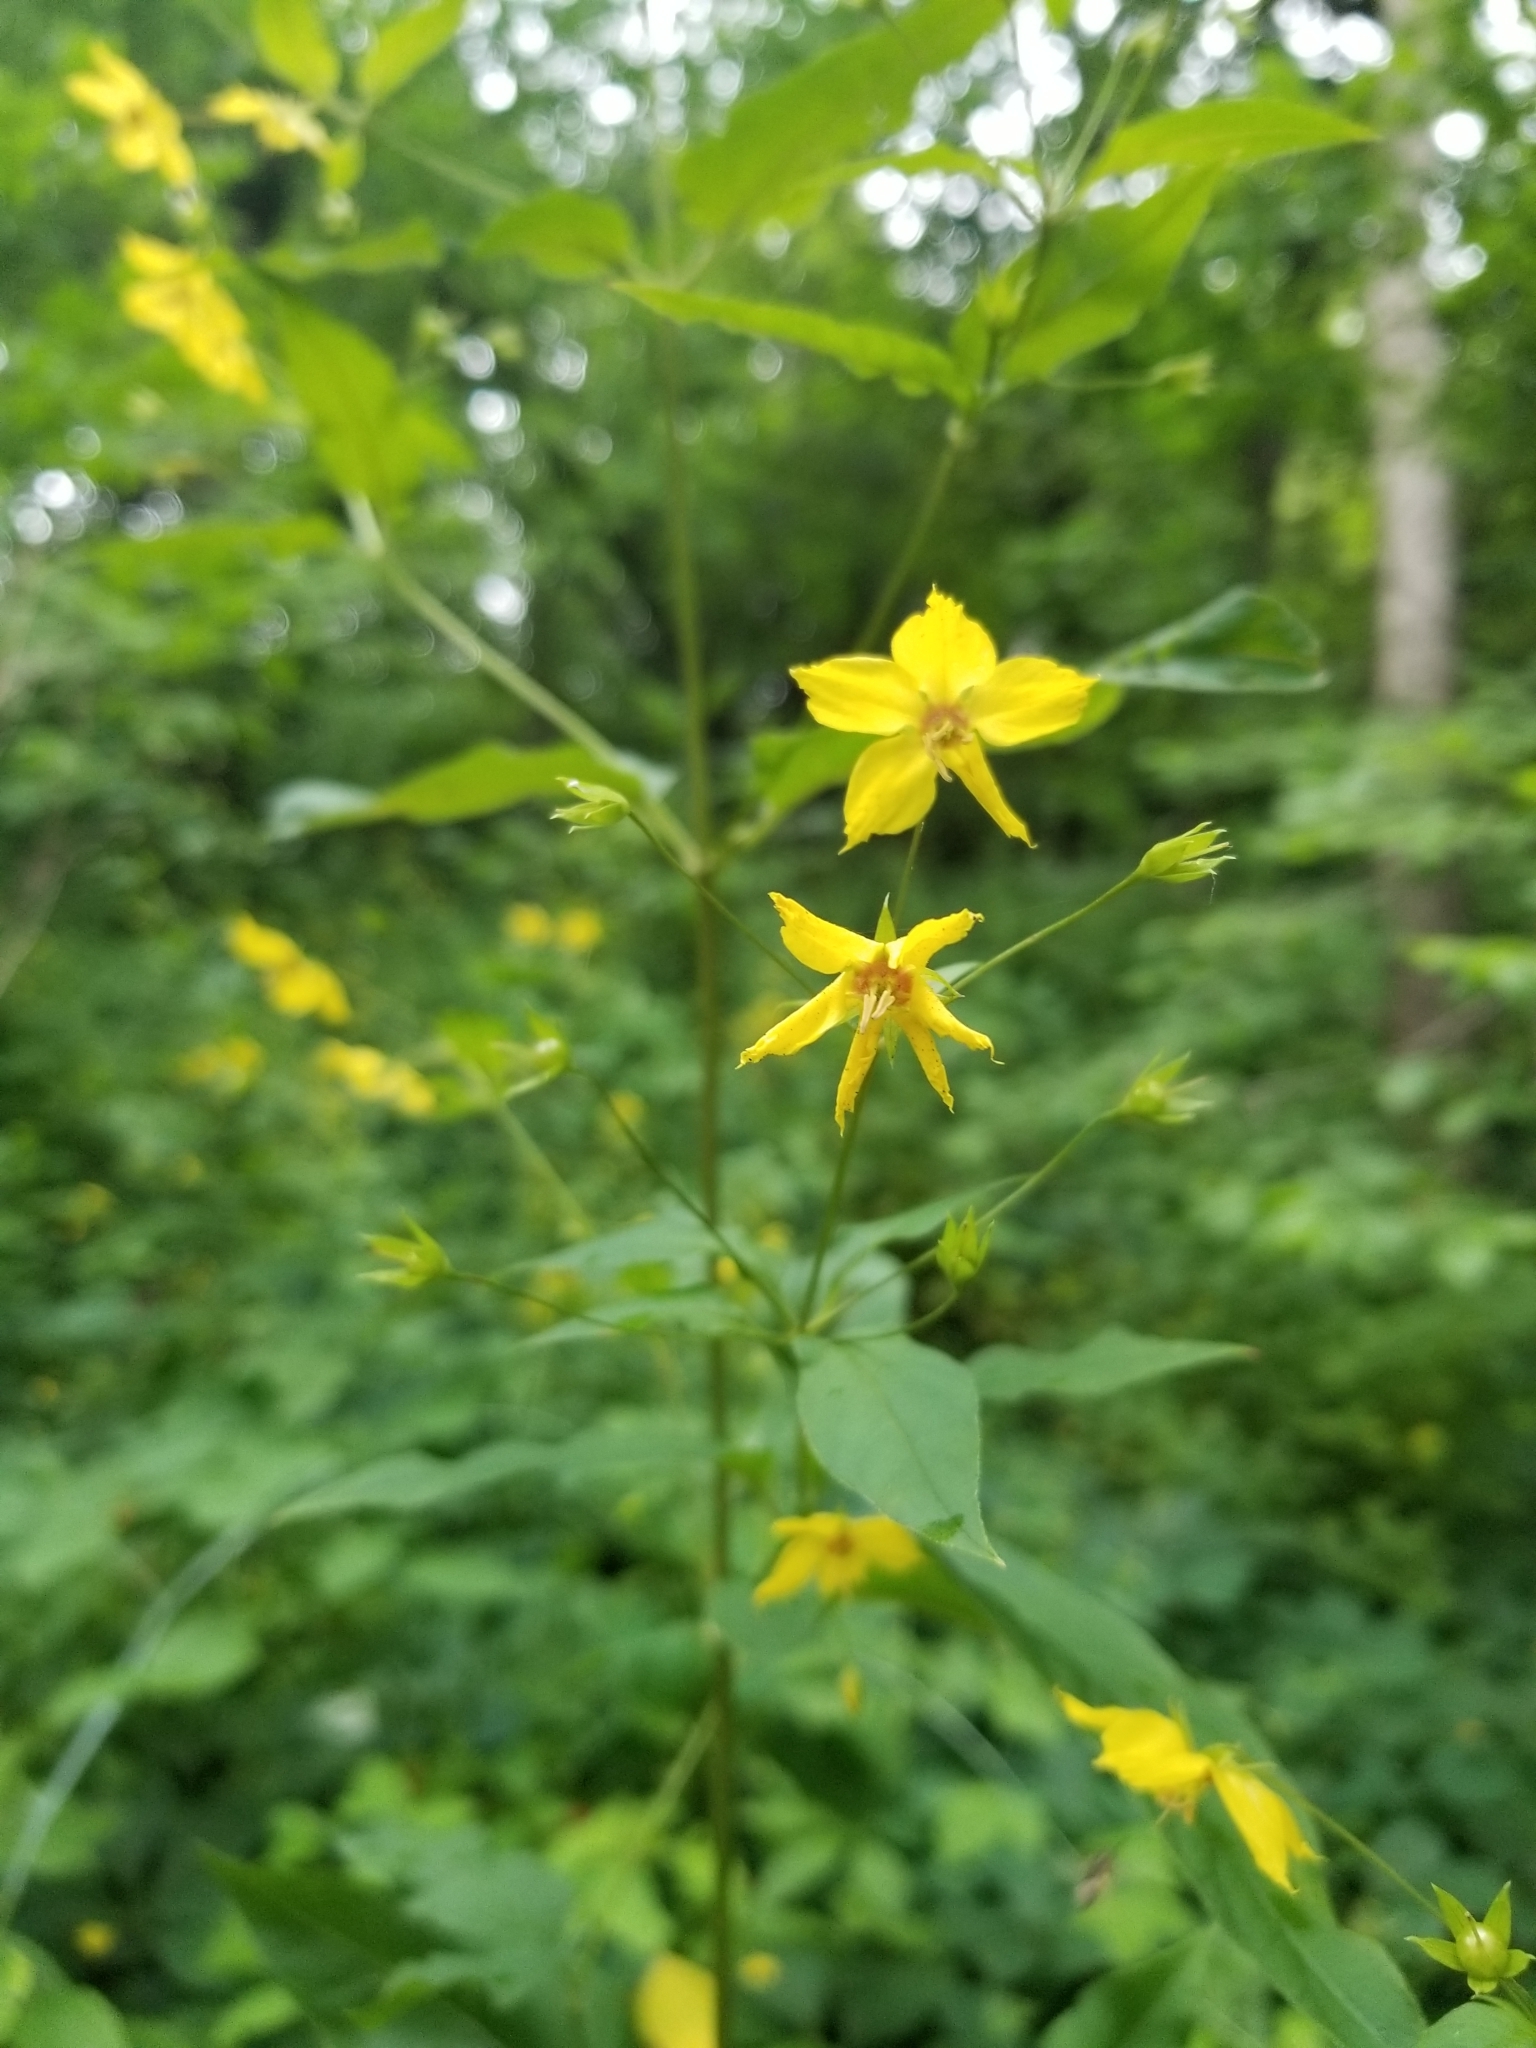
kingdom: Plantae
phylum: Tracheophyta
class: Magnoliopsida
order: Ericales
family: Primulaceae
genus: Lysimachia
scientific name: Lysimachia ciliata
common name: Fringed loosestrife
